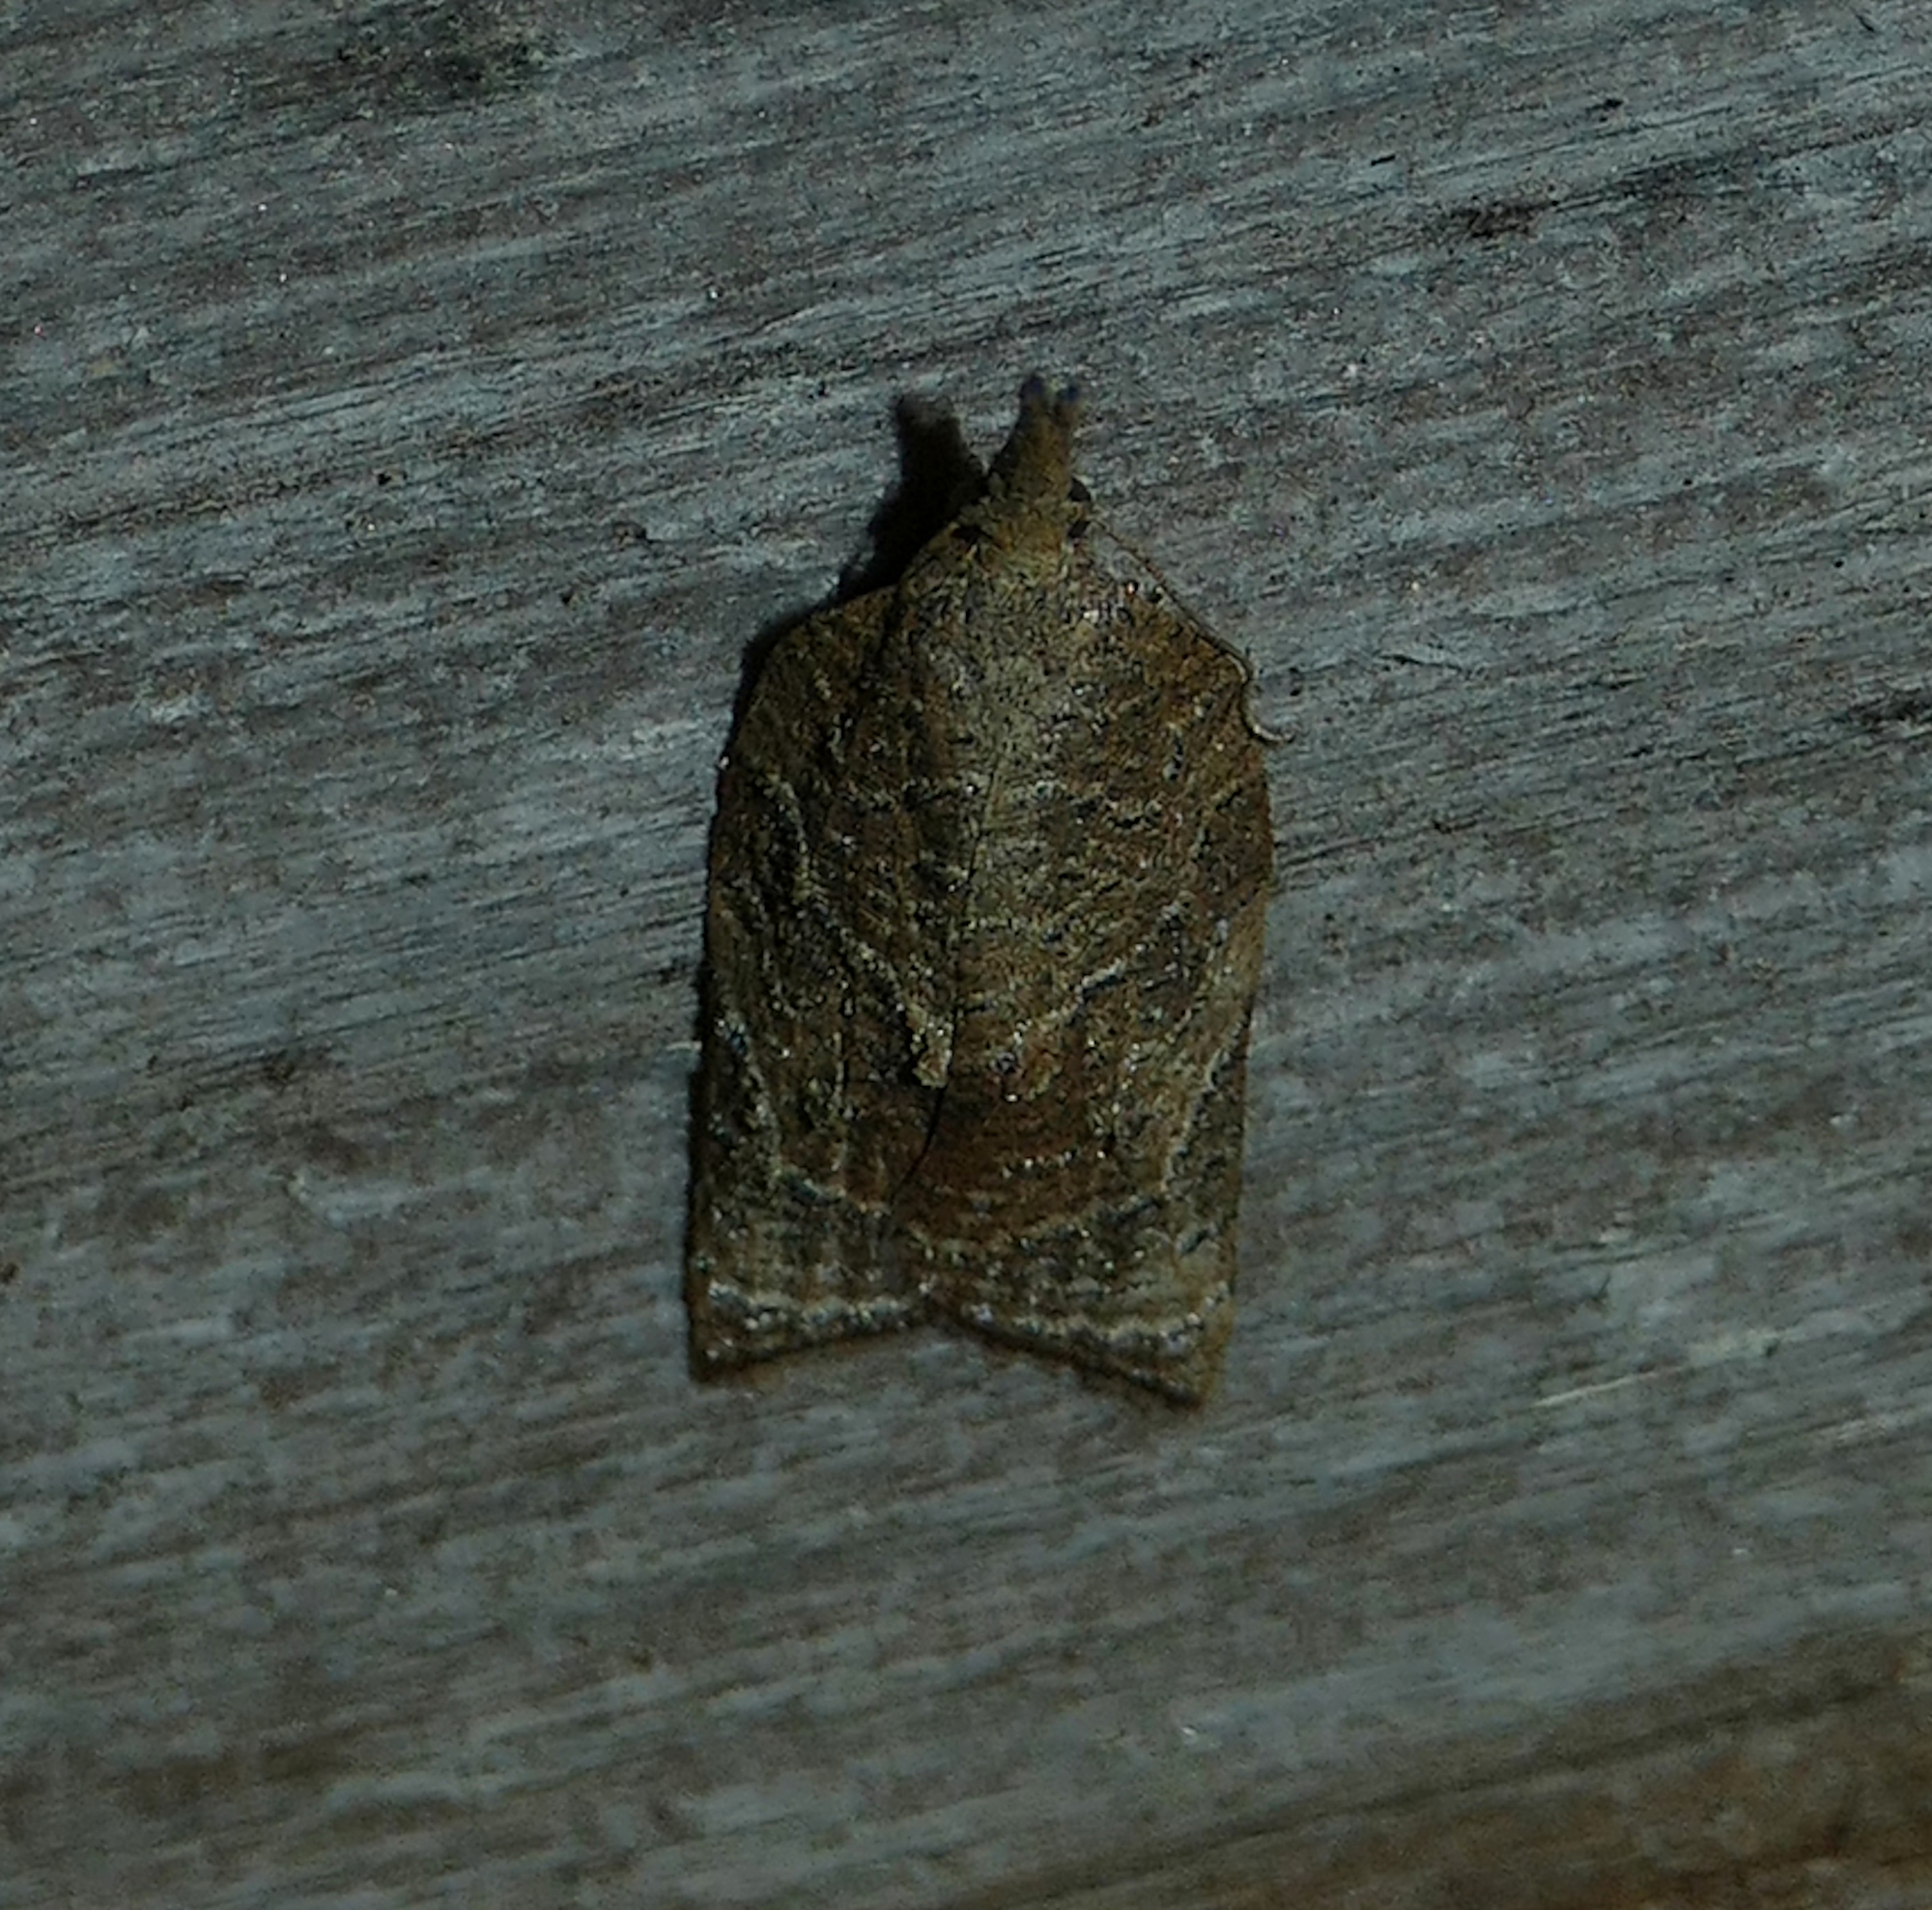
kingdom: Animalia
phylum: Arthropoda
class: Insecta
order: Lepidoptera
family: Tortricidae
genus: Platynota
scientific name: Platynota rostrana
